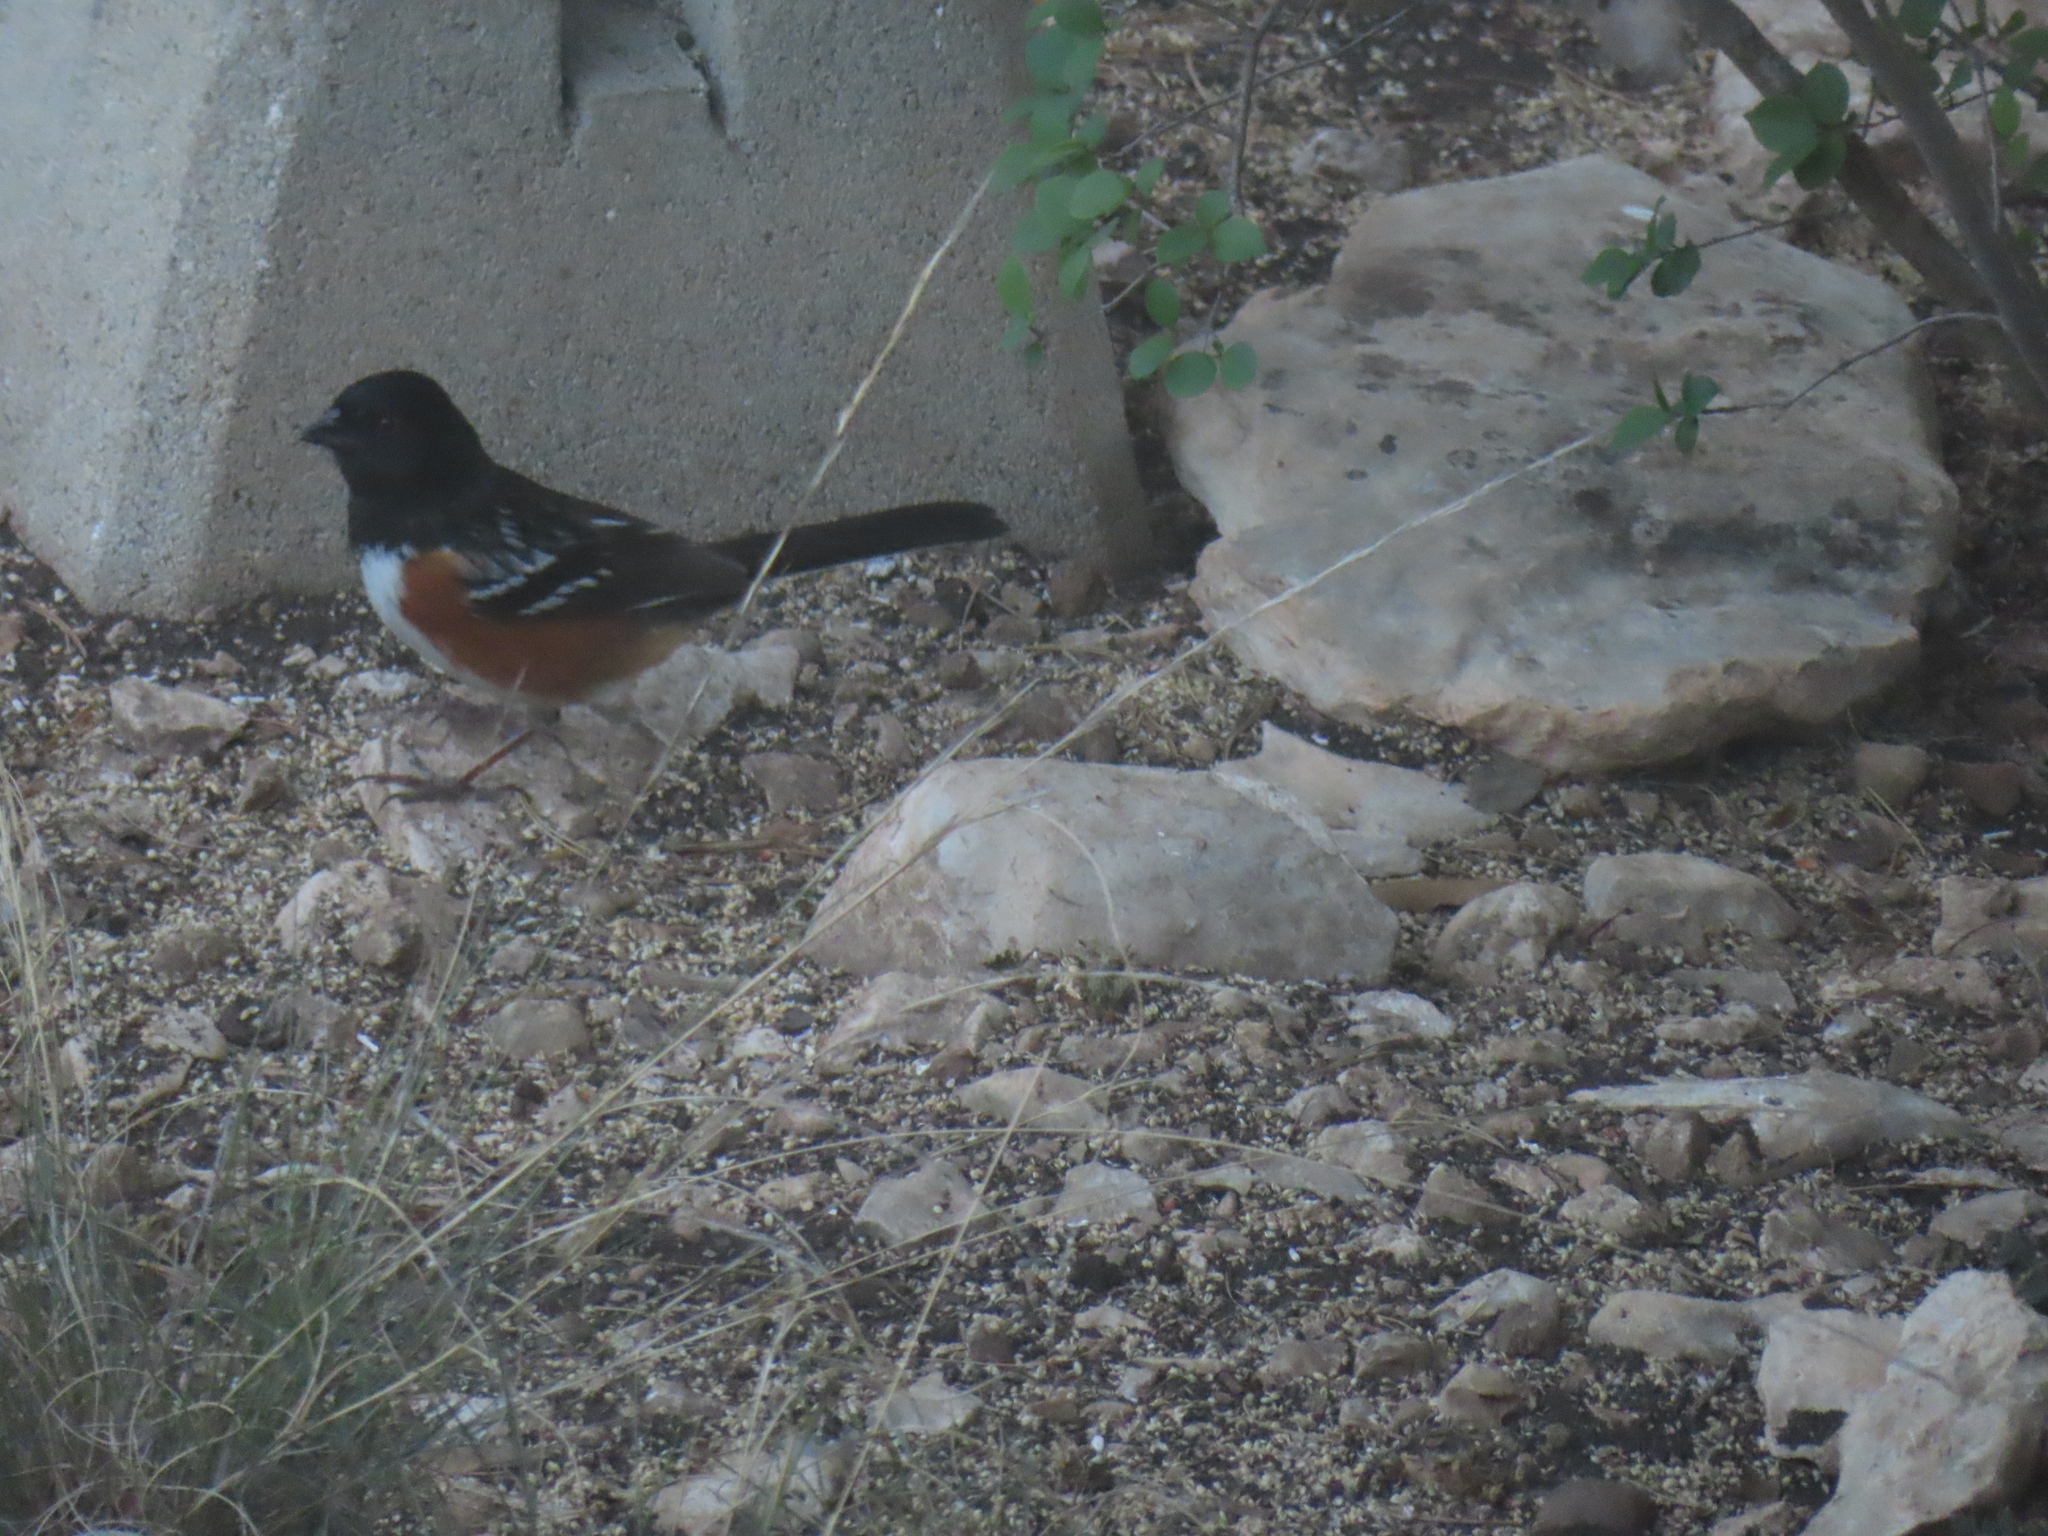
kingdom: Animalia
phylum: Chordata
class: Aves
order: Passeriformes
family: Passerellidae
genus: Pipilo
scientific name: Pipilo maculatus
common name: Spotted towhee
